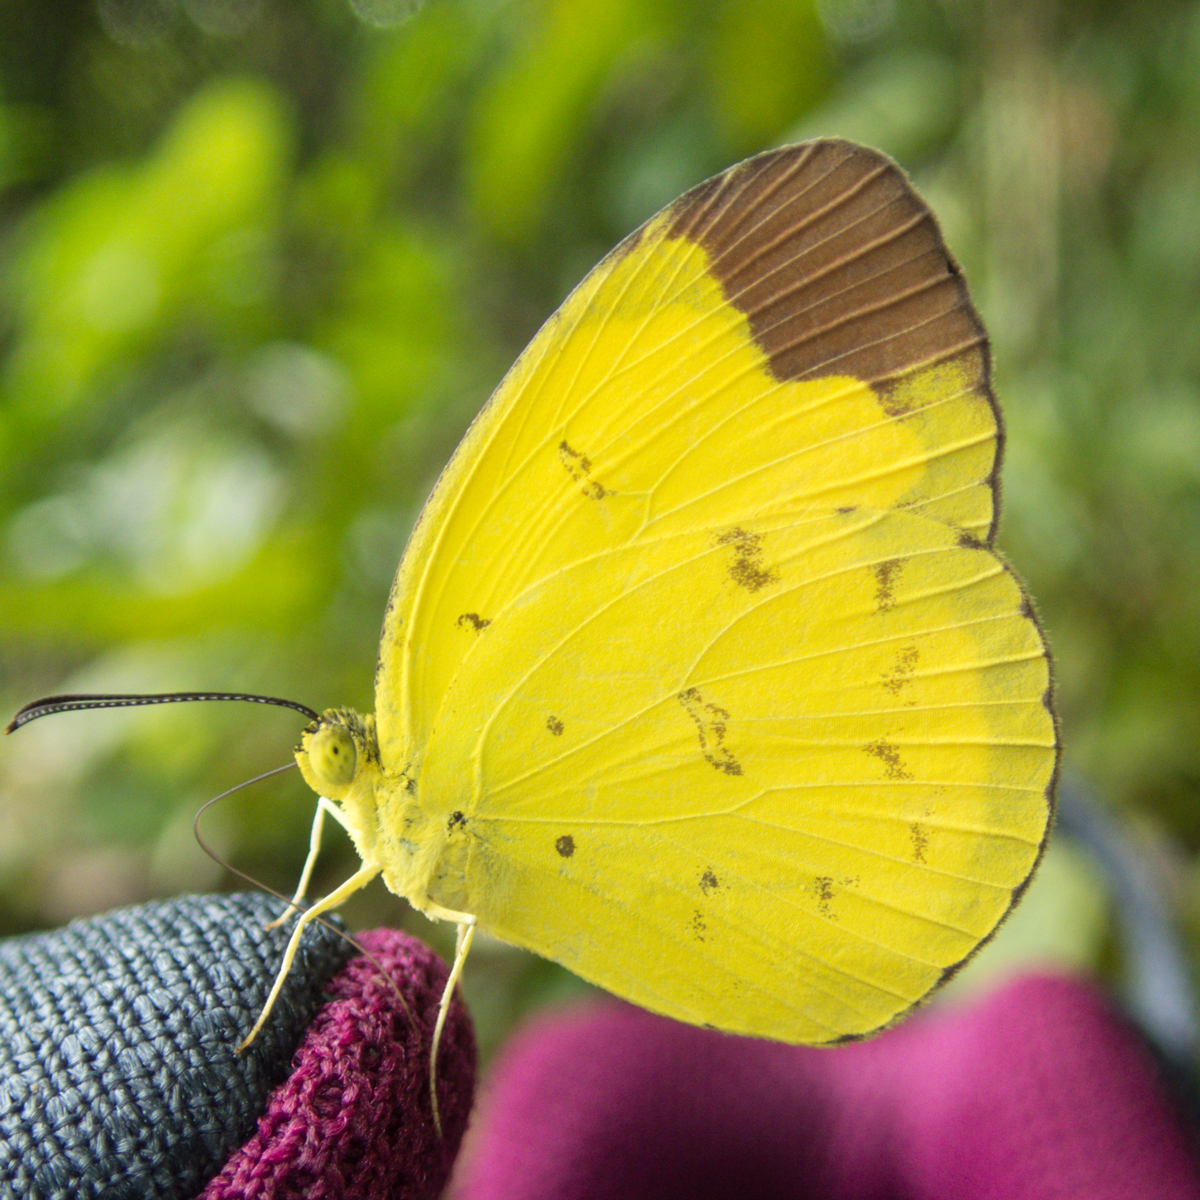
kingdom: Animalia
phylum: Arthropoda
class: Insecta
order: Lepidoptera
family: Pieridae
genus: Eurema
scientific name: Eurema sari
